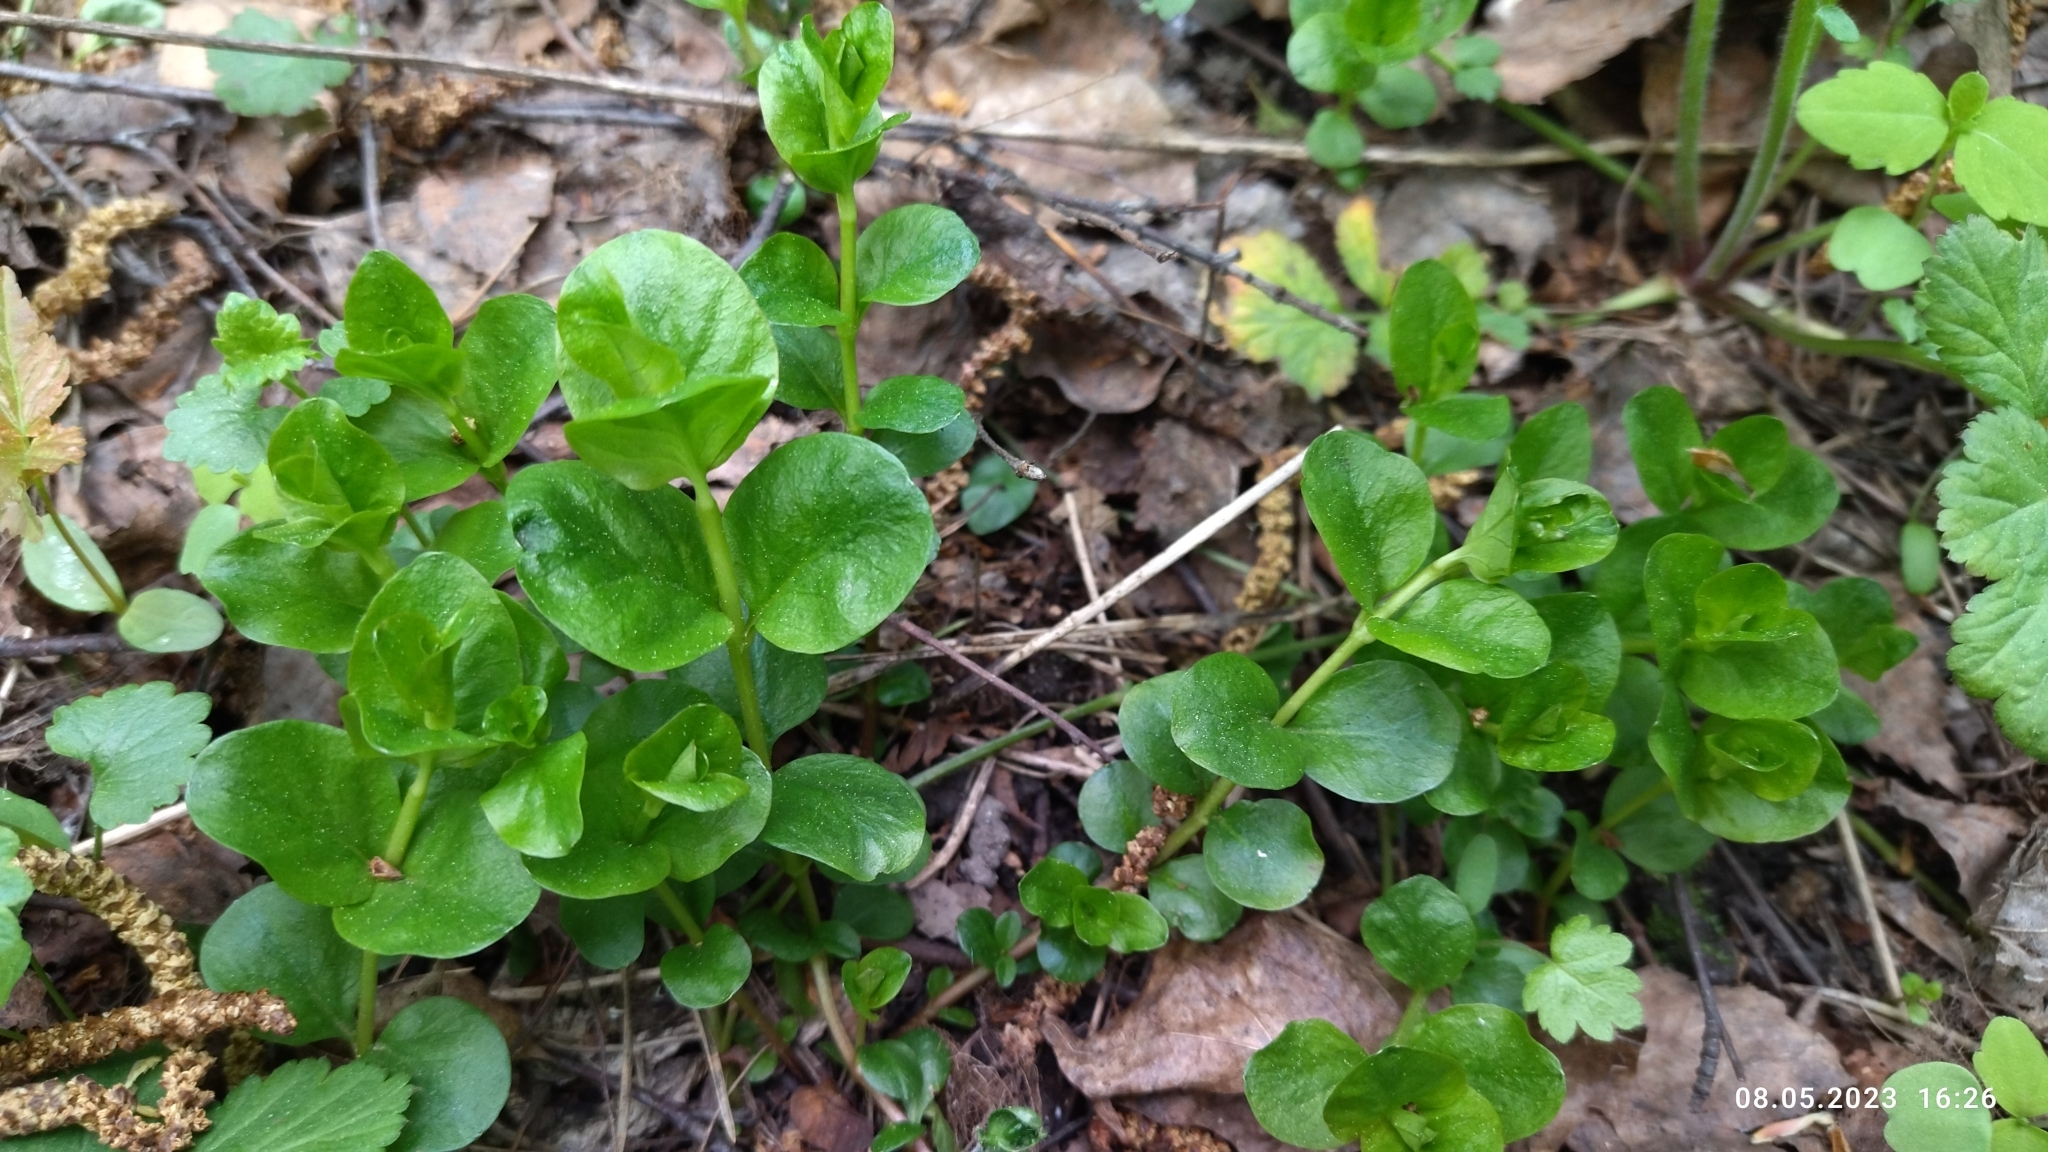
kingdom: Plantae
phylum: Tracheophyta
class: Magnoliopsida
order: Ericales
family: Primulaceae
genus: Lysimachia
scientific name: Lysimachia nummularia
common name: Moneywort
